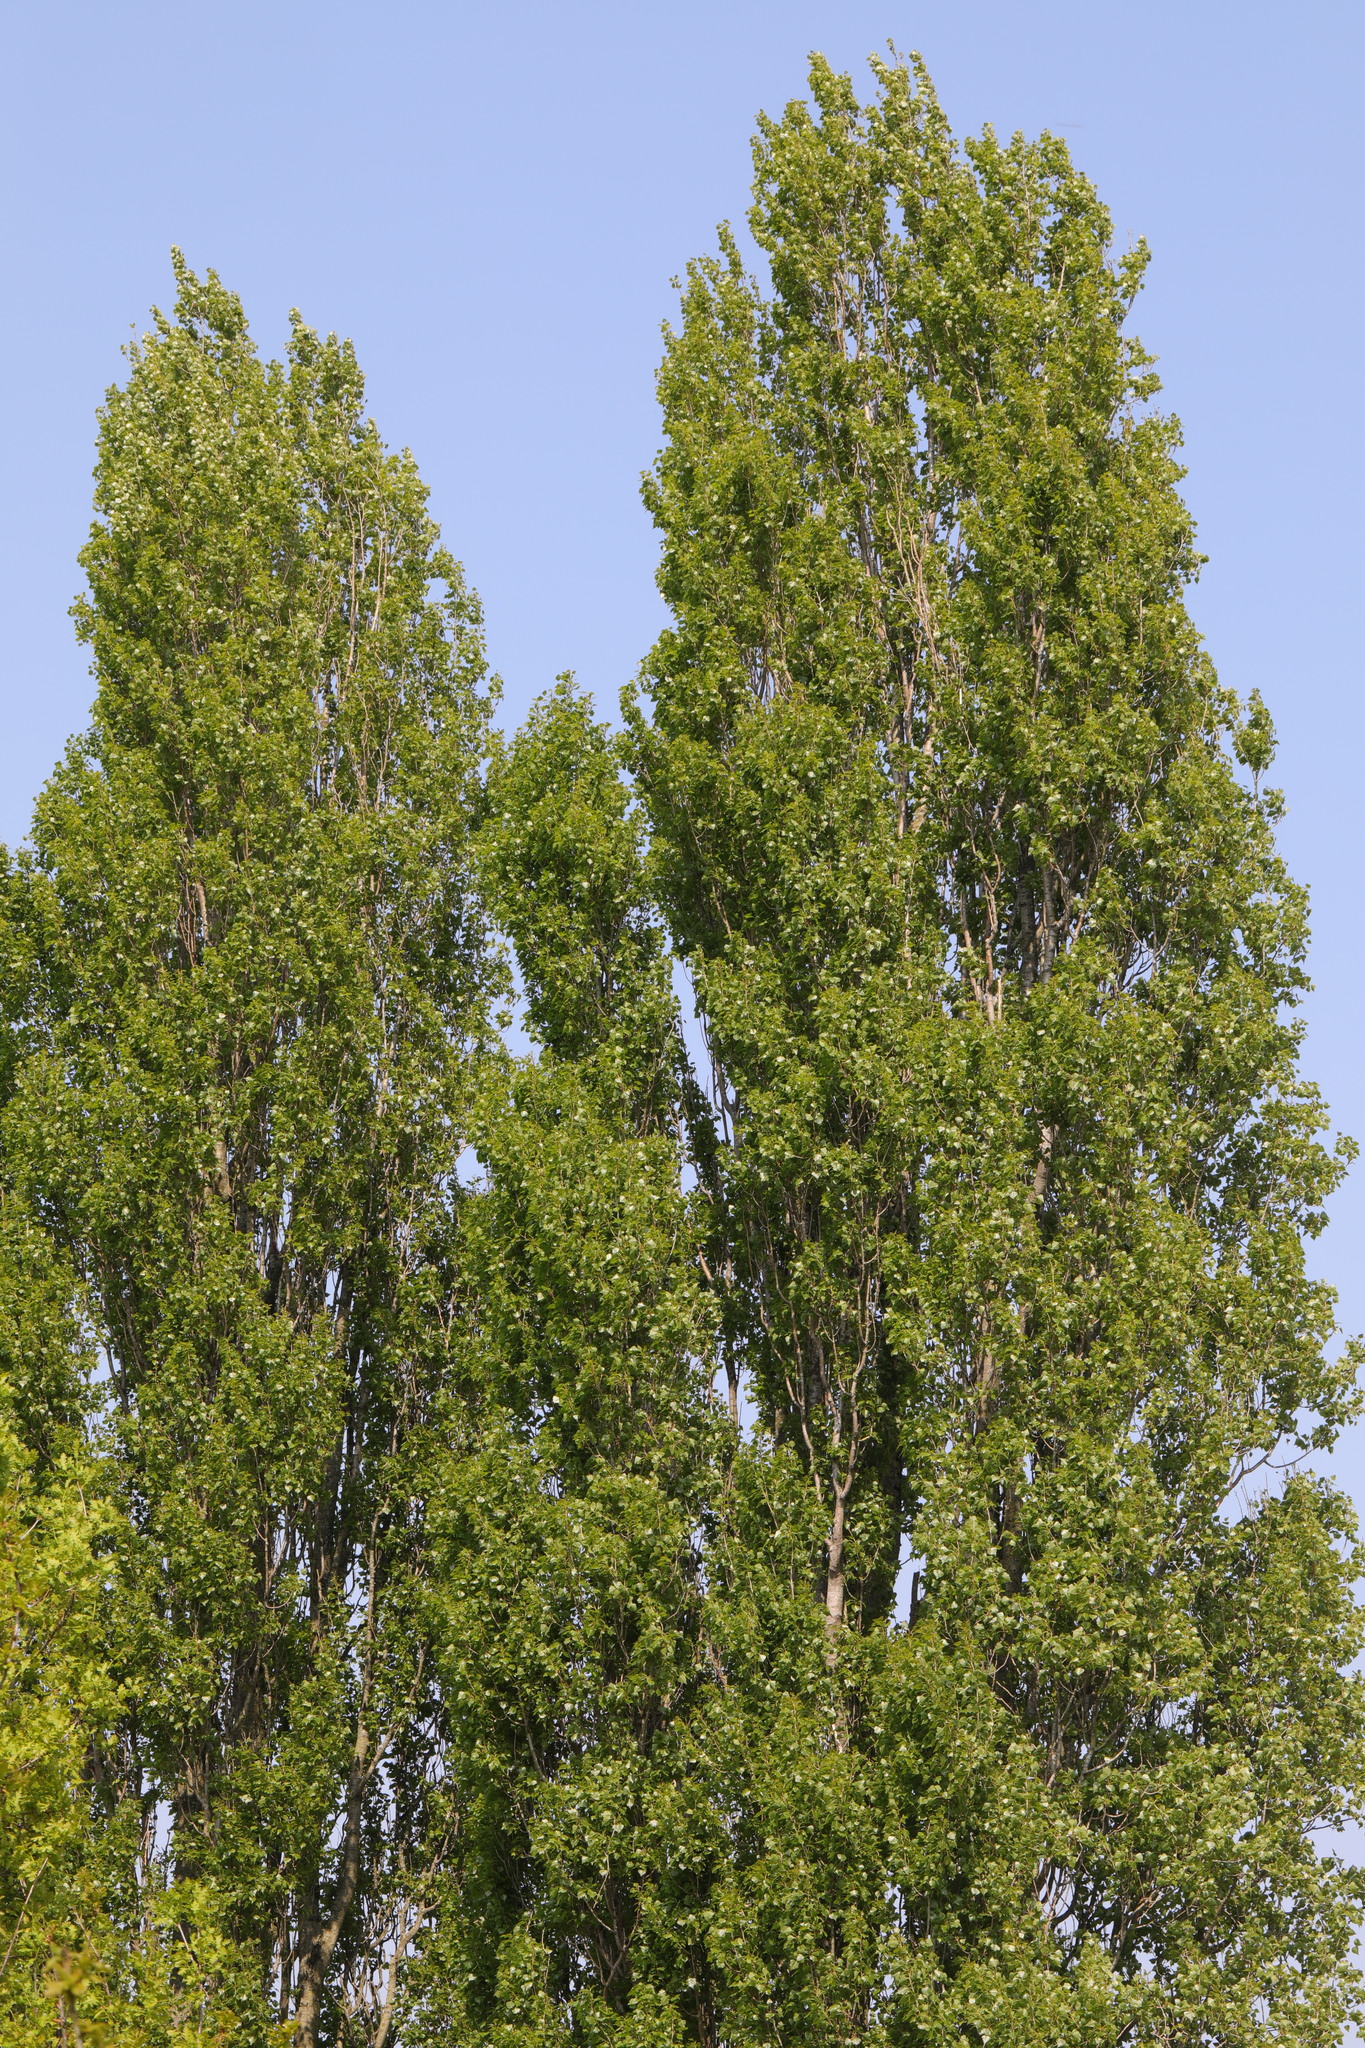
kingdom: Plantae
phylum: Tracheophyta
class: Magnoliopsida
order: Malpighiales
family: Salicaceae
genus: Populus
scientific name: Populus nigra
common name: Black poplar
